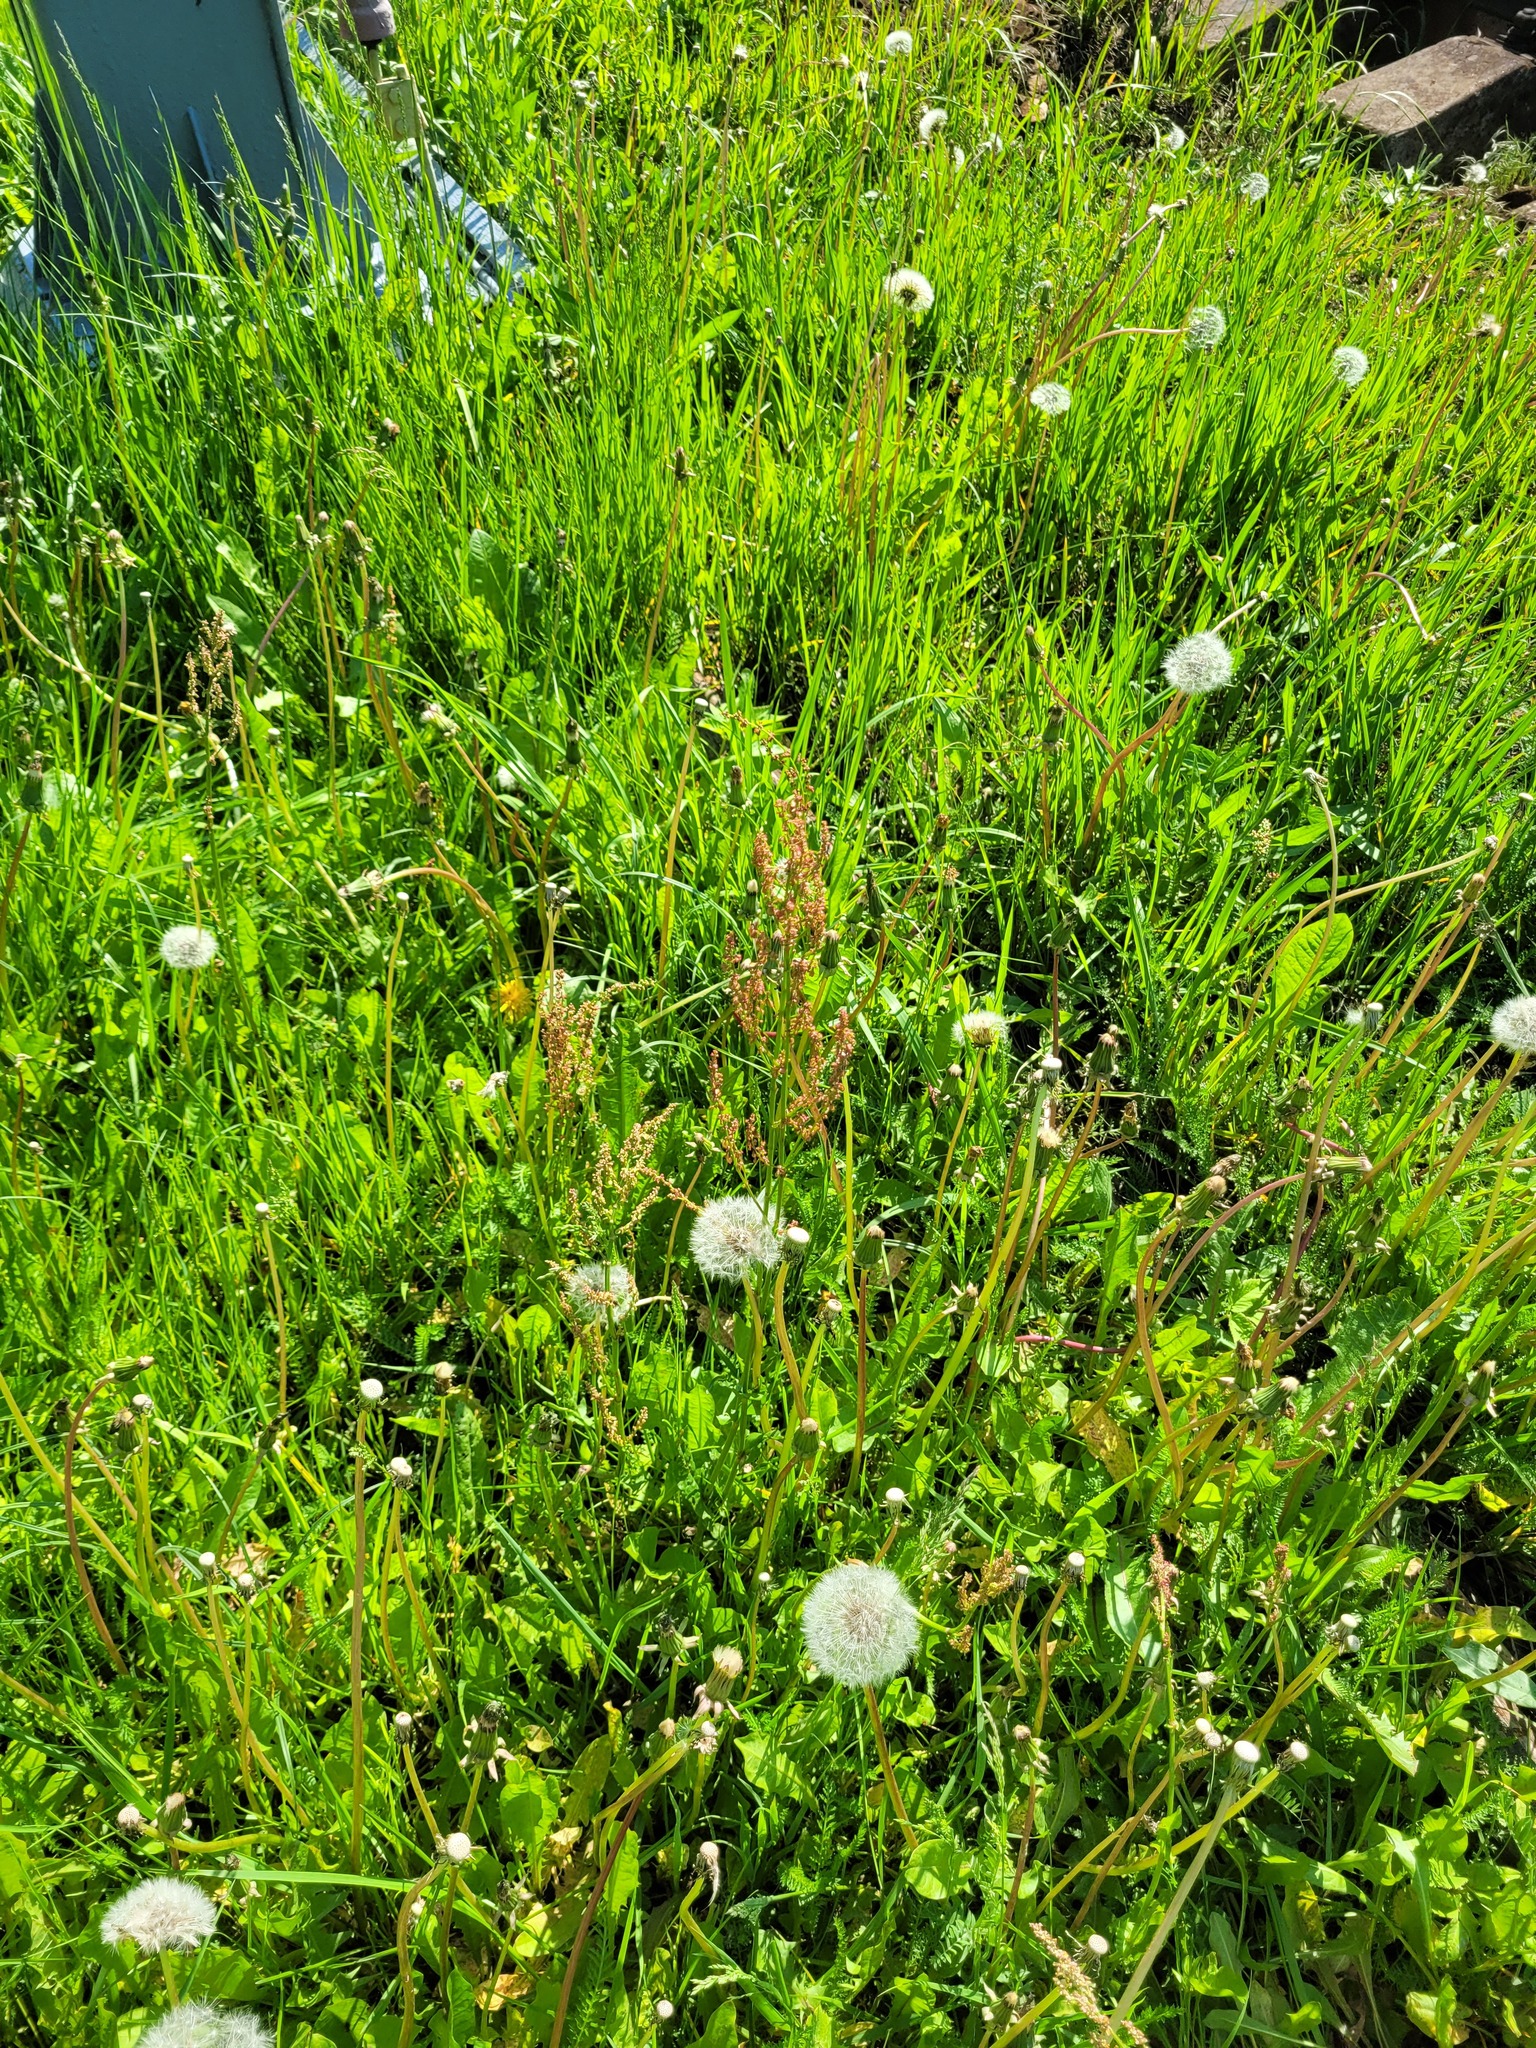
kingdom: Plantae
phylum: Tracheophyta
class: Magnoliopsida
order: Caryophyllales
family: Polygonaceae
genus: Rumex
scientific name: Rumex thyrsiflorus
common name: Garden sorrel
